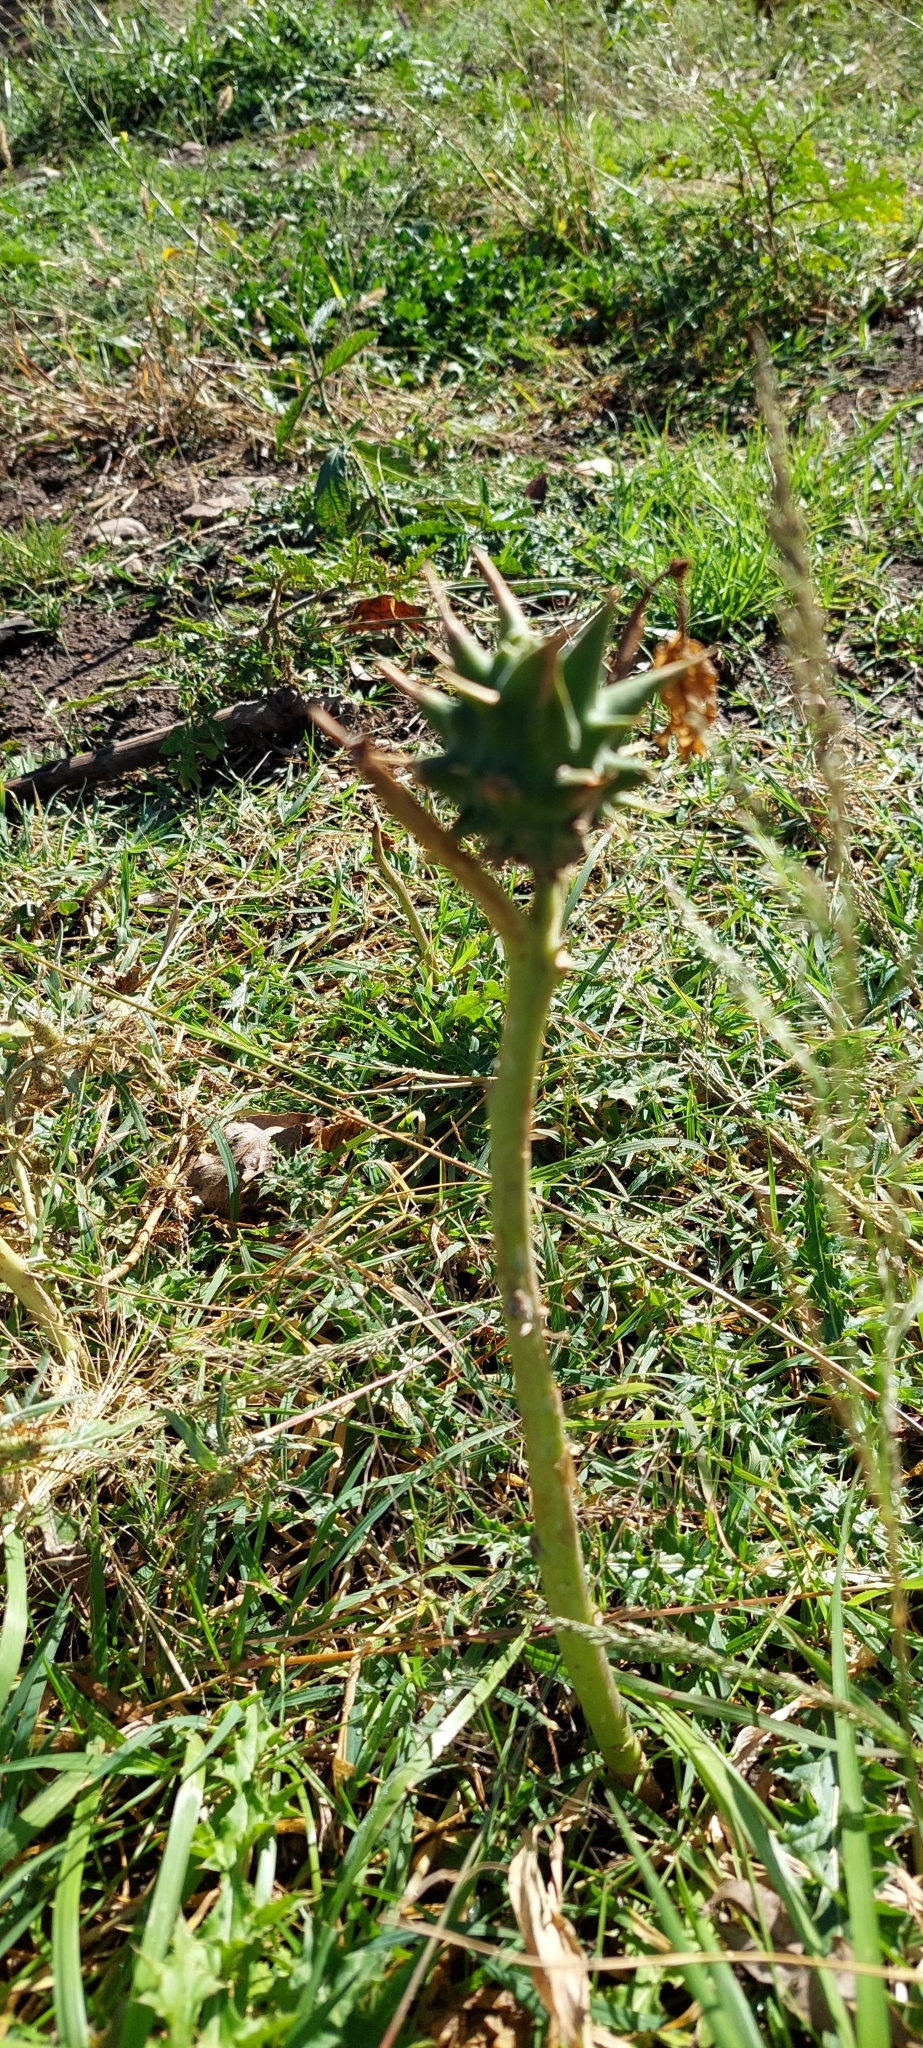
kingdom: Plantae
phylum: Tracheophyta
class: Magnoliopsida
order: Solanales
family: Solanaceae
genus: Datura
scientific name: Datura ferox
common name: Angel's-trumpets
